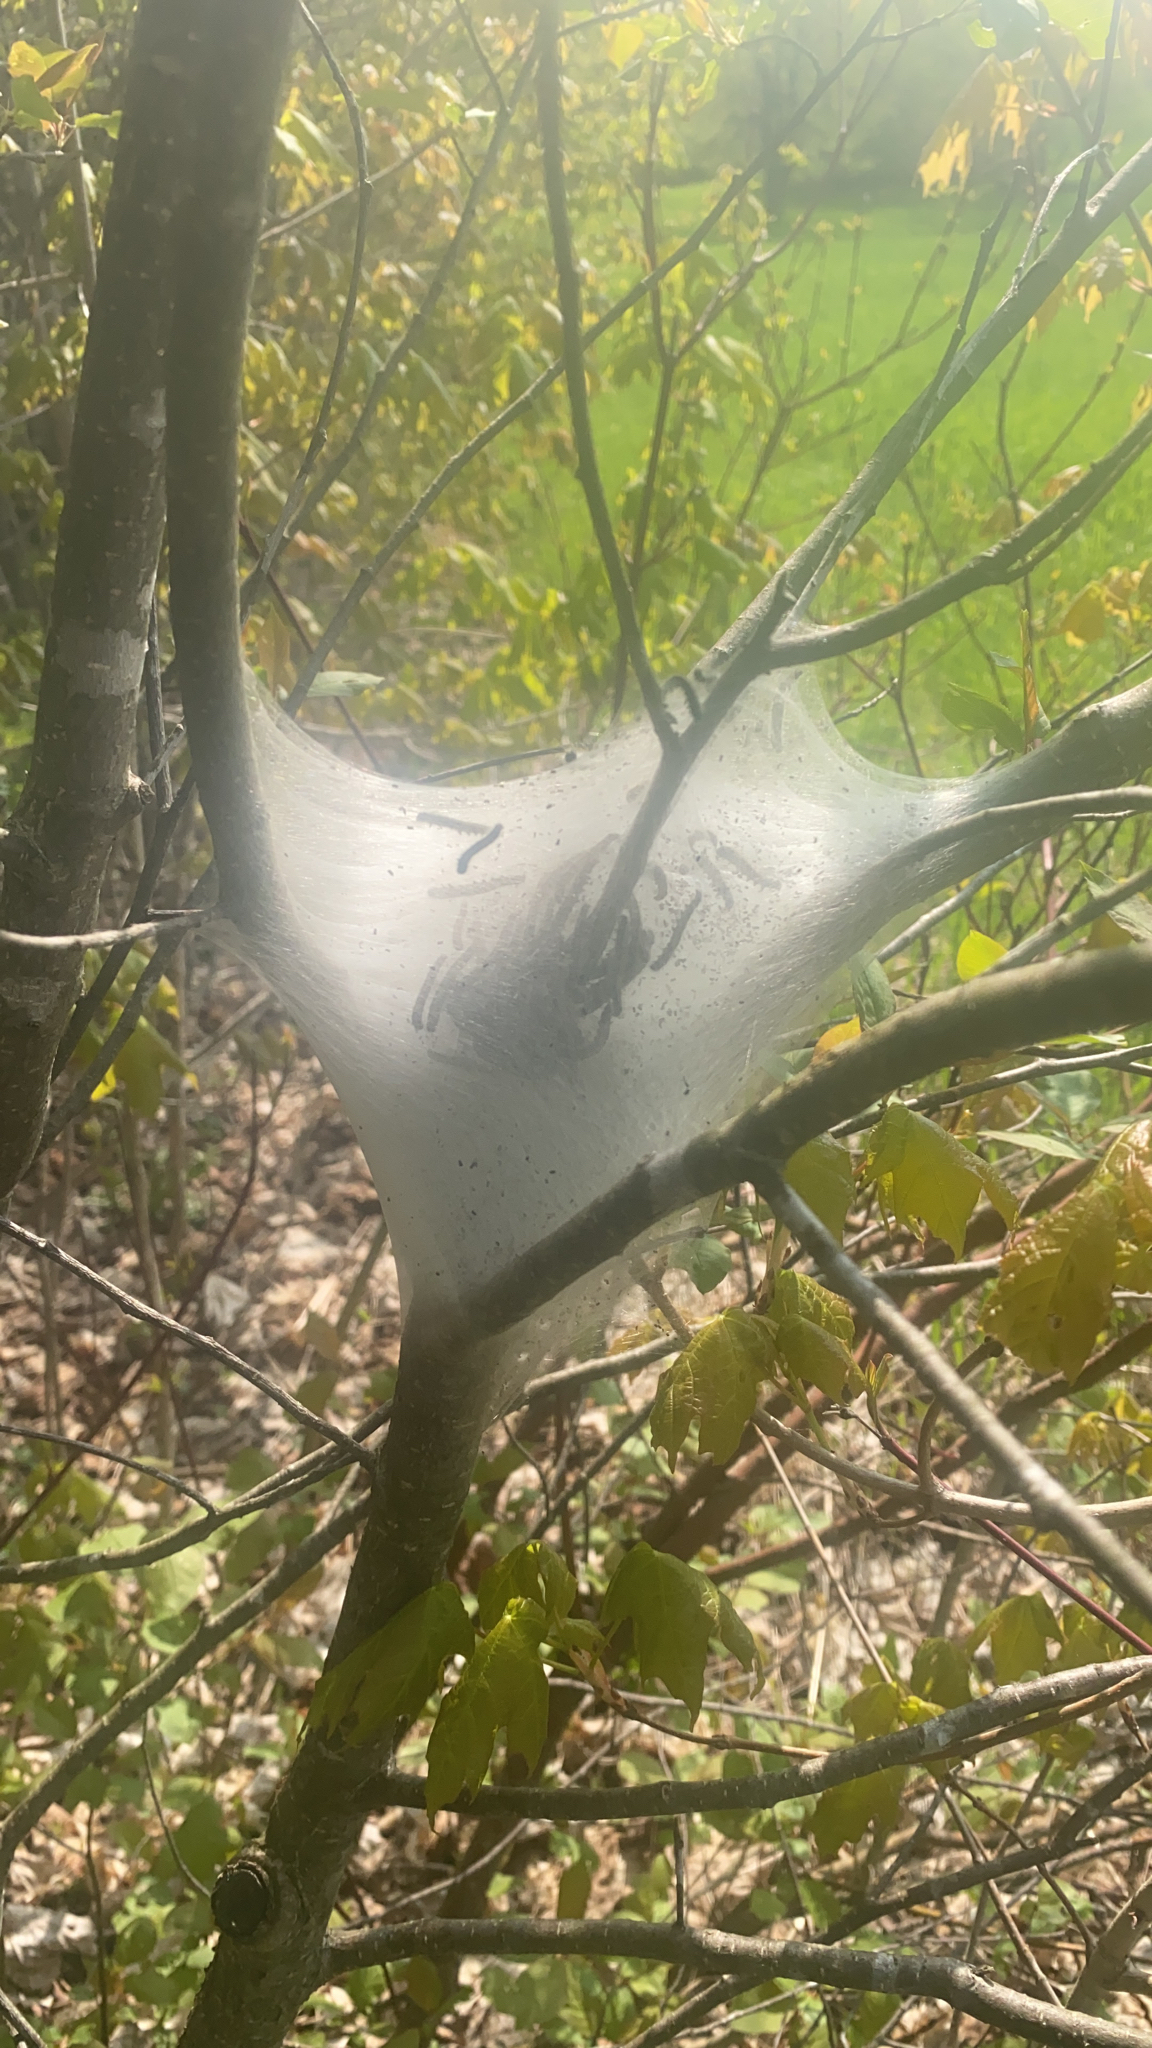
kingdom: Animalia
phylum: Arthropoda
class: Insecta
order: Lepidoptera
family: Lasiocampidae
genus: Malacosoma
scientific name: Malacosoma americana
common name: Eastern tent caterpillar moth
